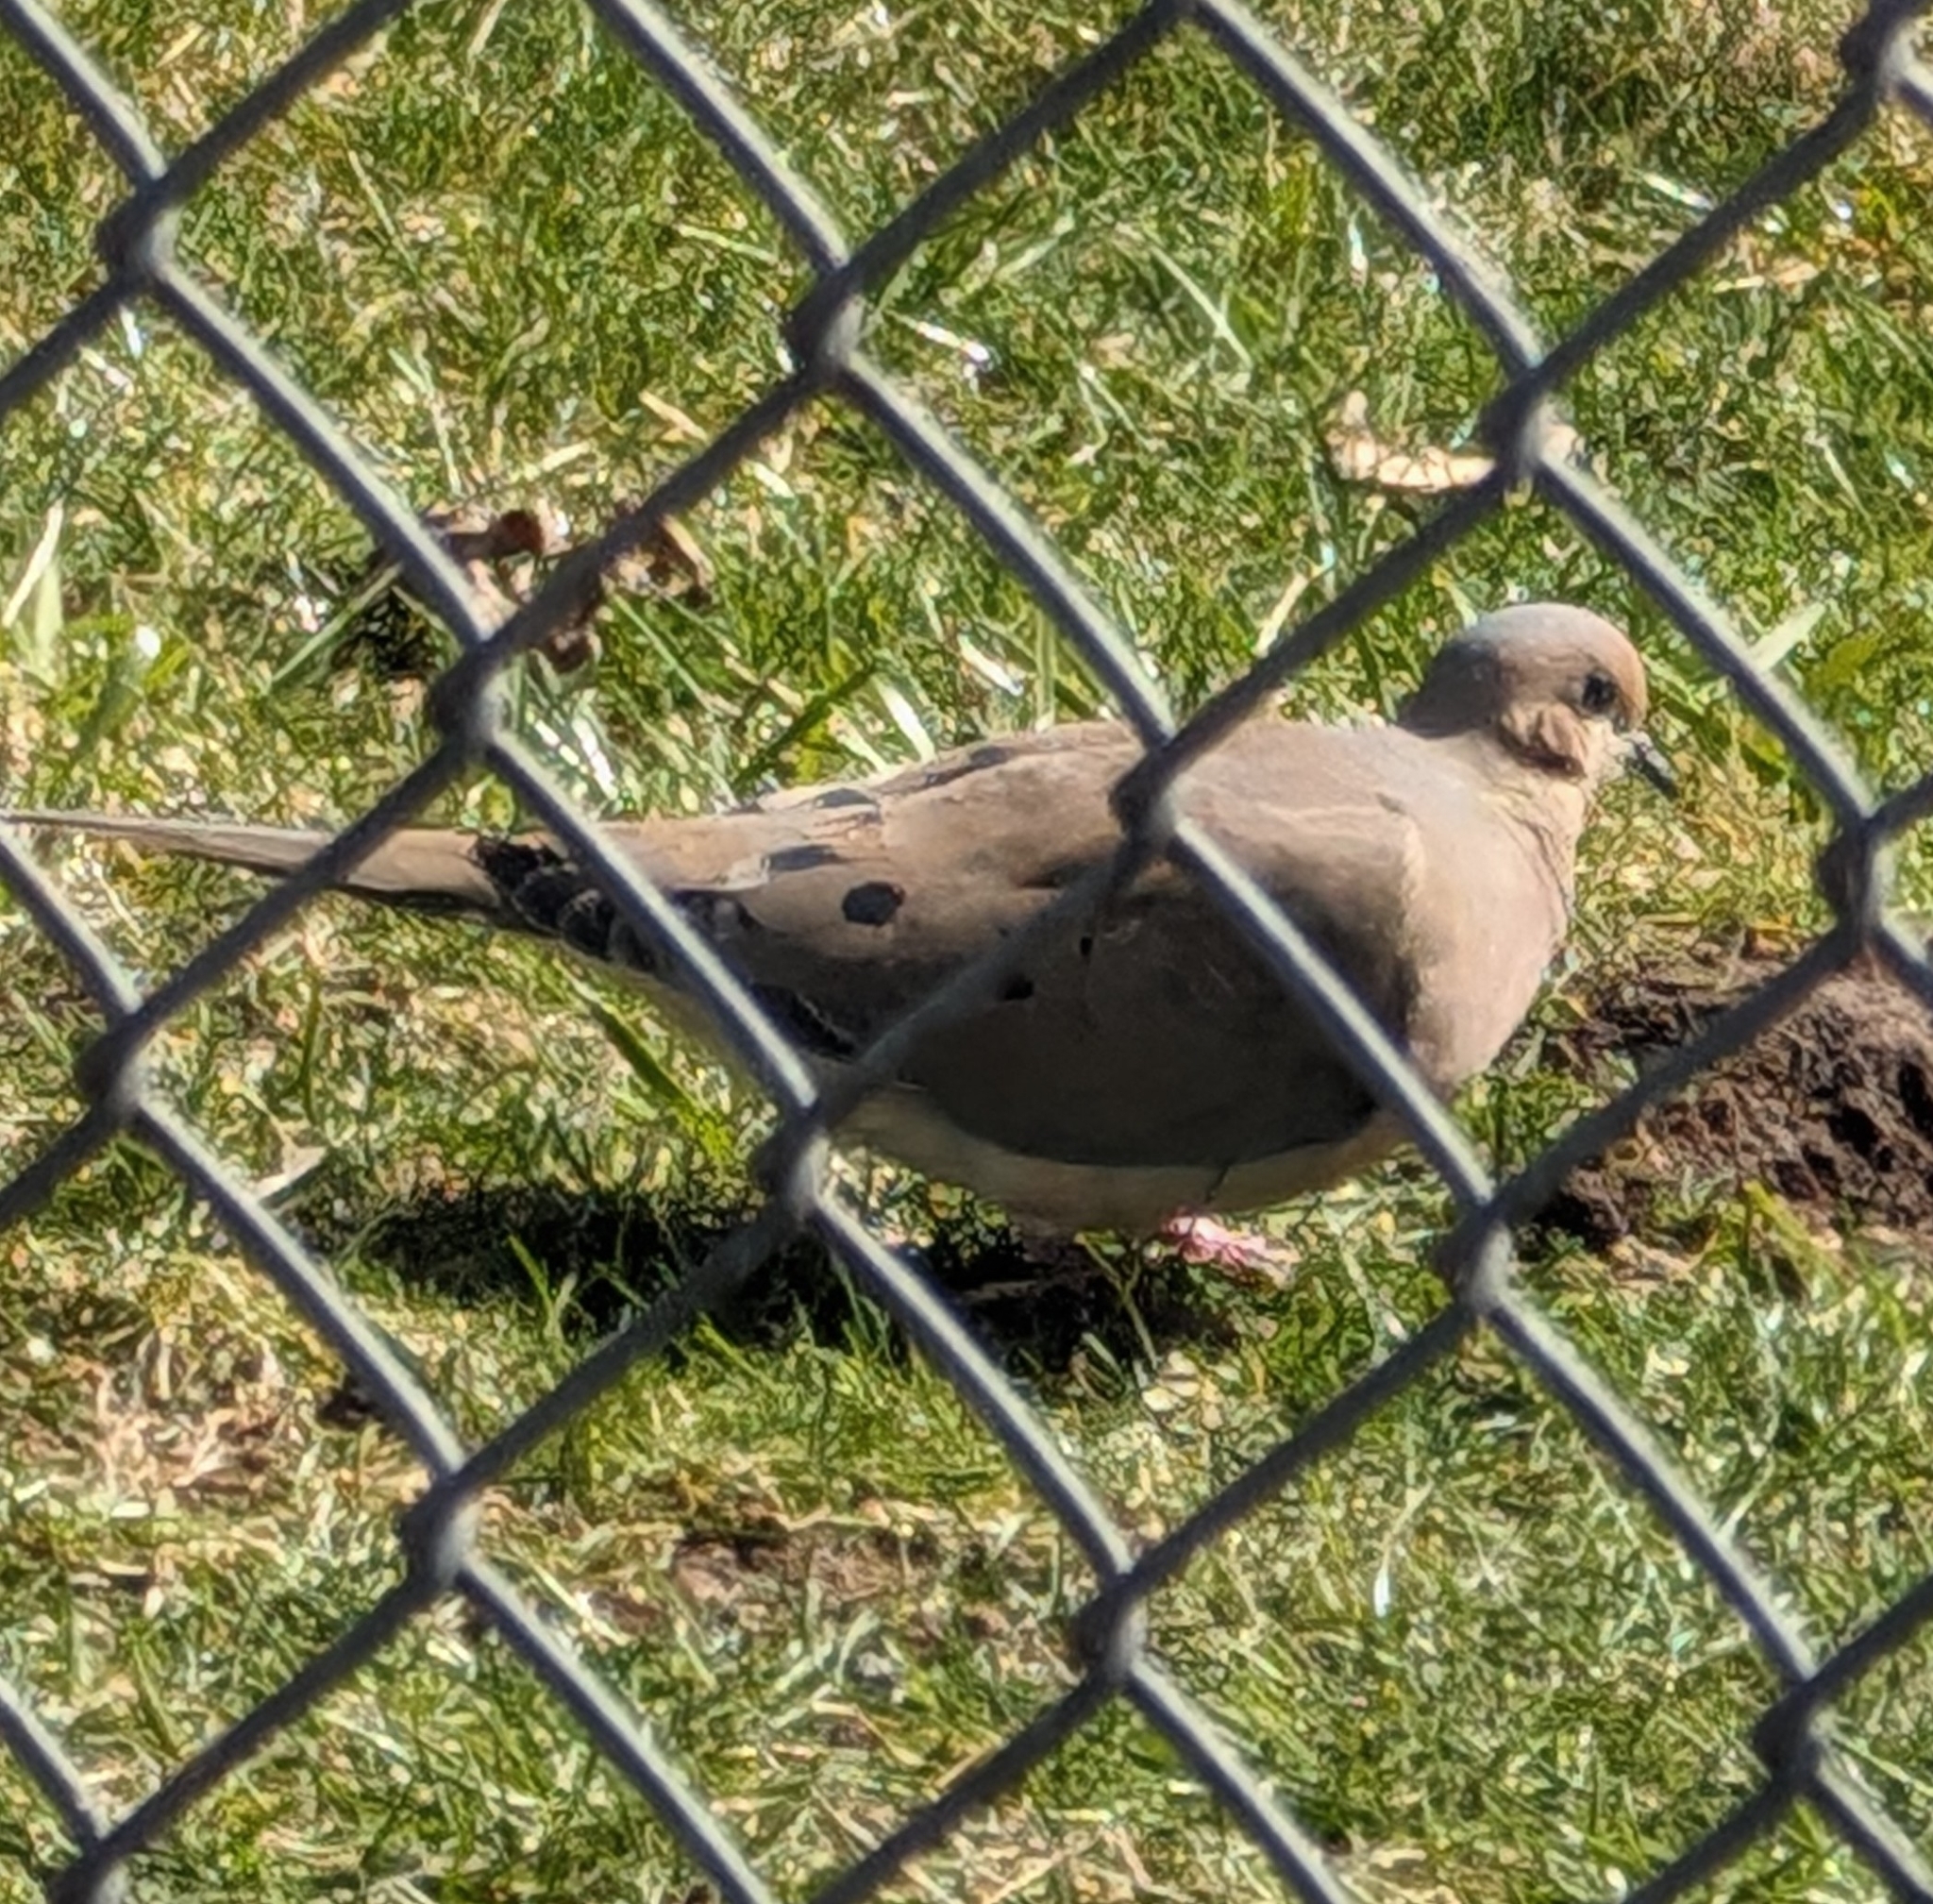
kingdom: Animalia
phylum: Chordata
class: Aves
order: Columbiformes
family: Columbidae
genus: Zenaida
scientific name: Zenaida macroura
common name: Mourning dove
